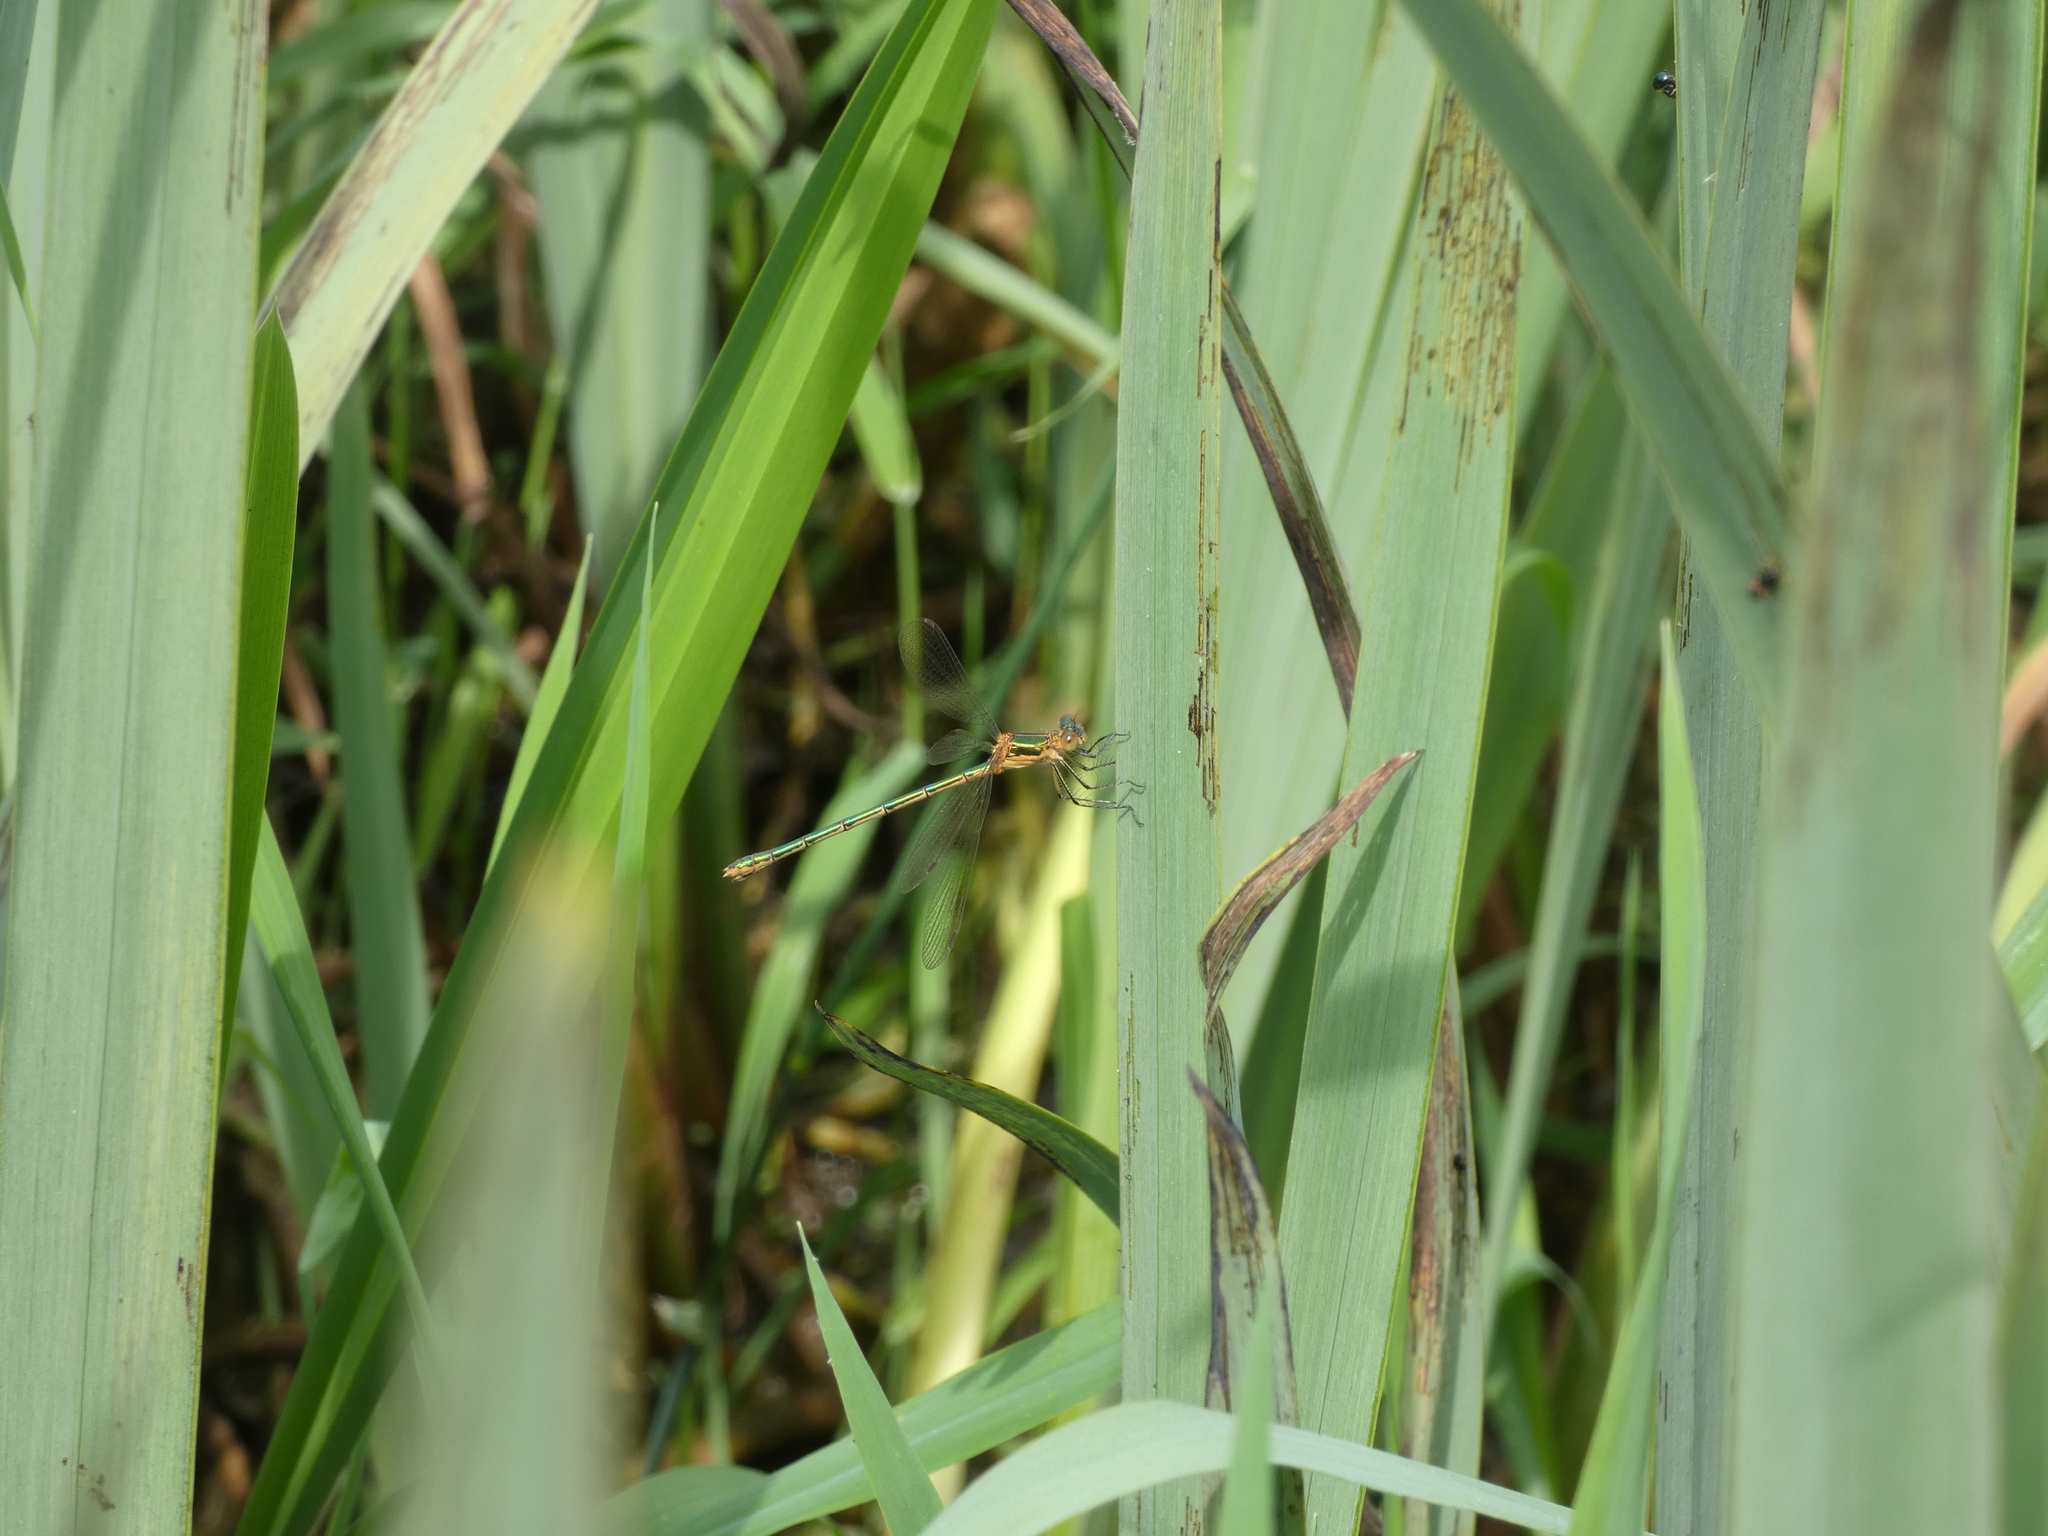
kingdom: Animalia
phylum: Arthropoda
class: Insecta
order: Odonata
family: Lestidae
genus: Lestes
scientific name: Lestes sponsa
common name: Common spreadwing
